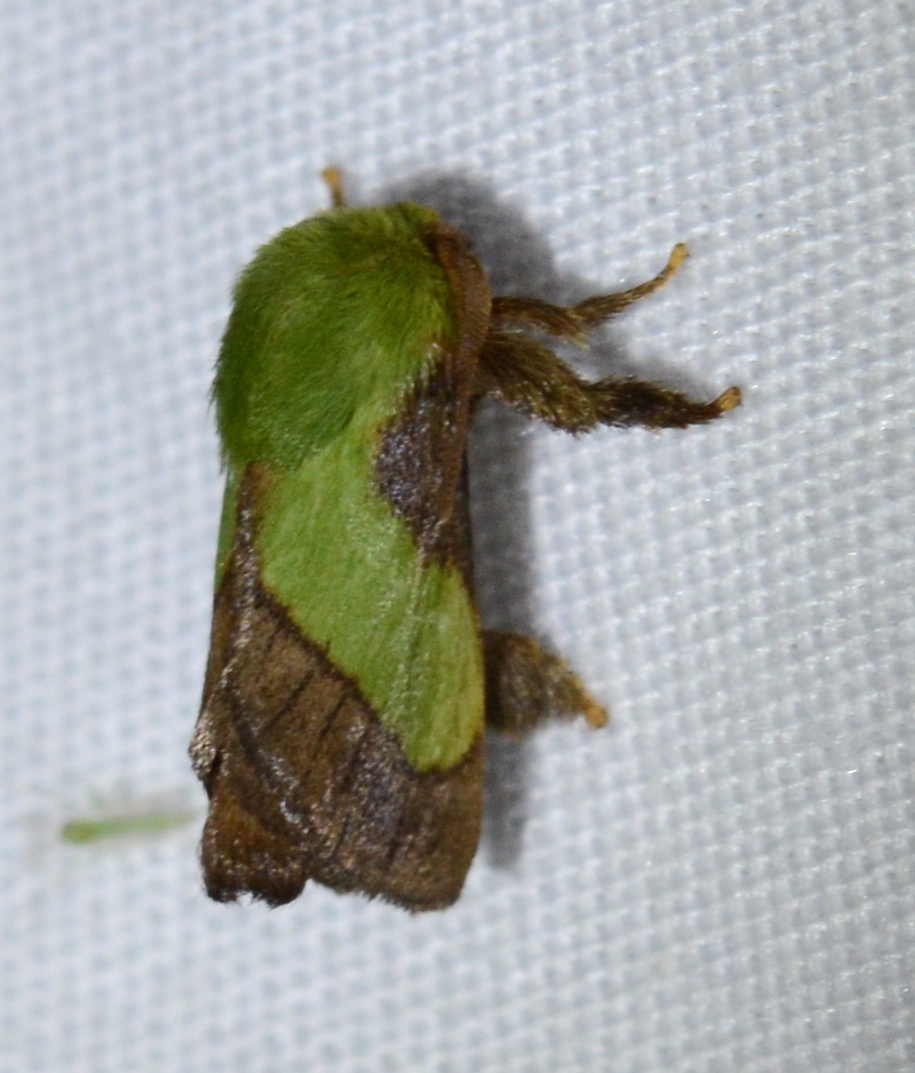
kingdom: Animalia
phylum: Arthropoda
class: Insecta
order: Lepidoptera
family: Limacodidae
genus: Parasa
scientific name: Parasa chloris
